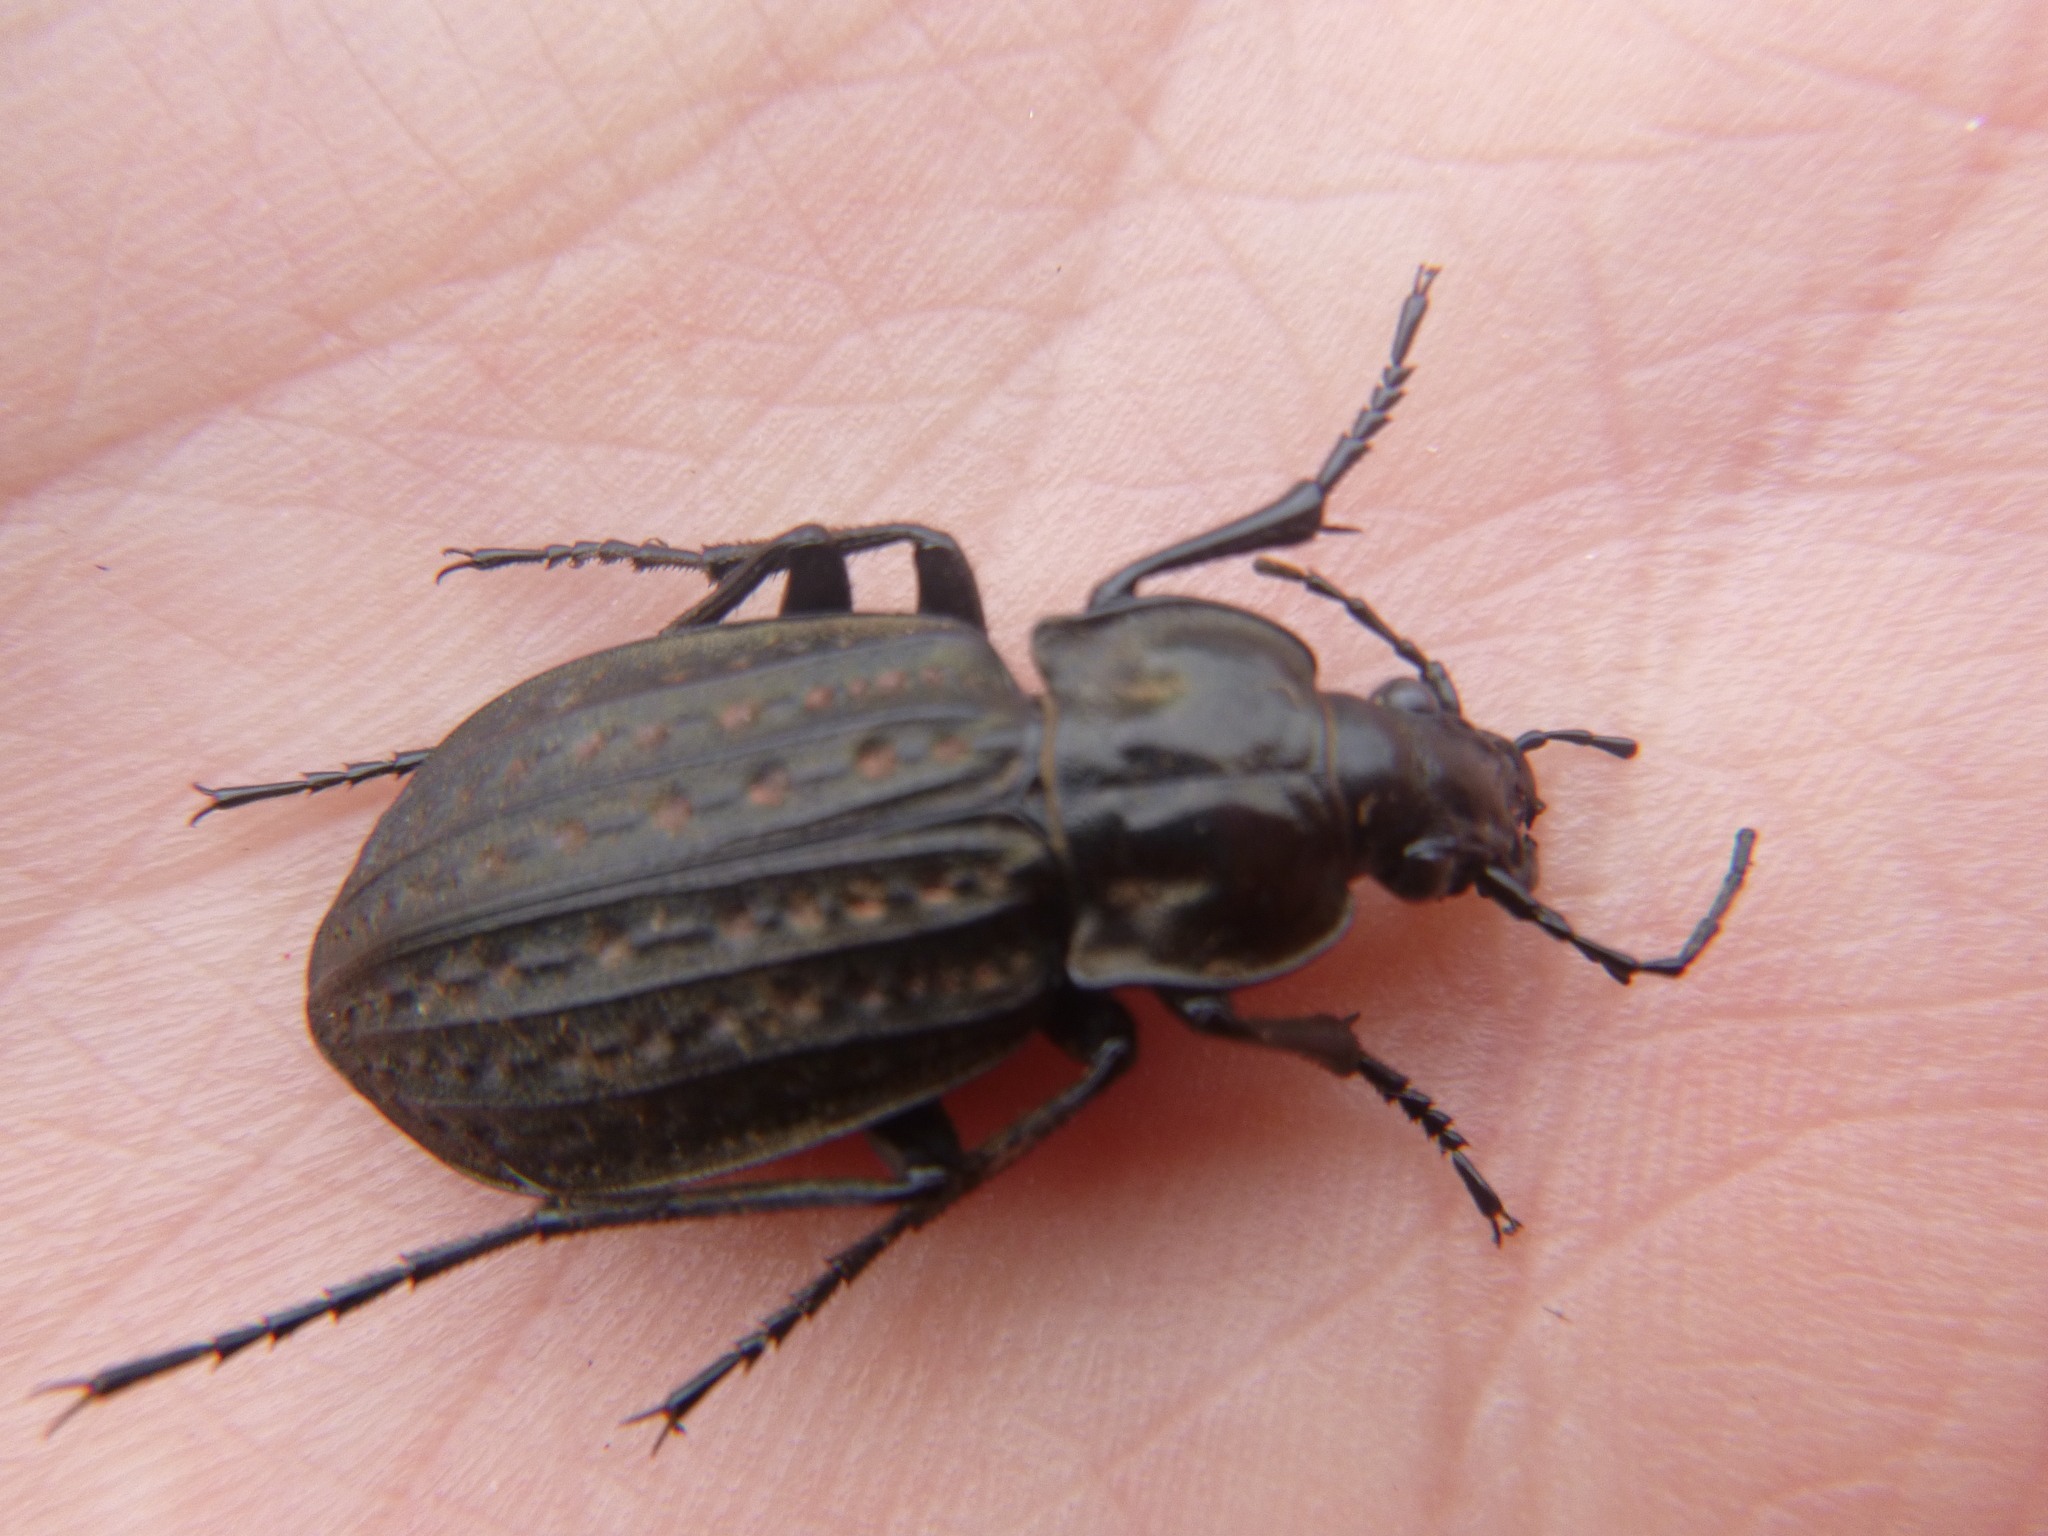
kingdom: Animalia
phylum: Arthropoda
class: Insecta
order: Coleoptera
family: Carabidae
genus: Carabus
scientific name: Carabus clatratus
